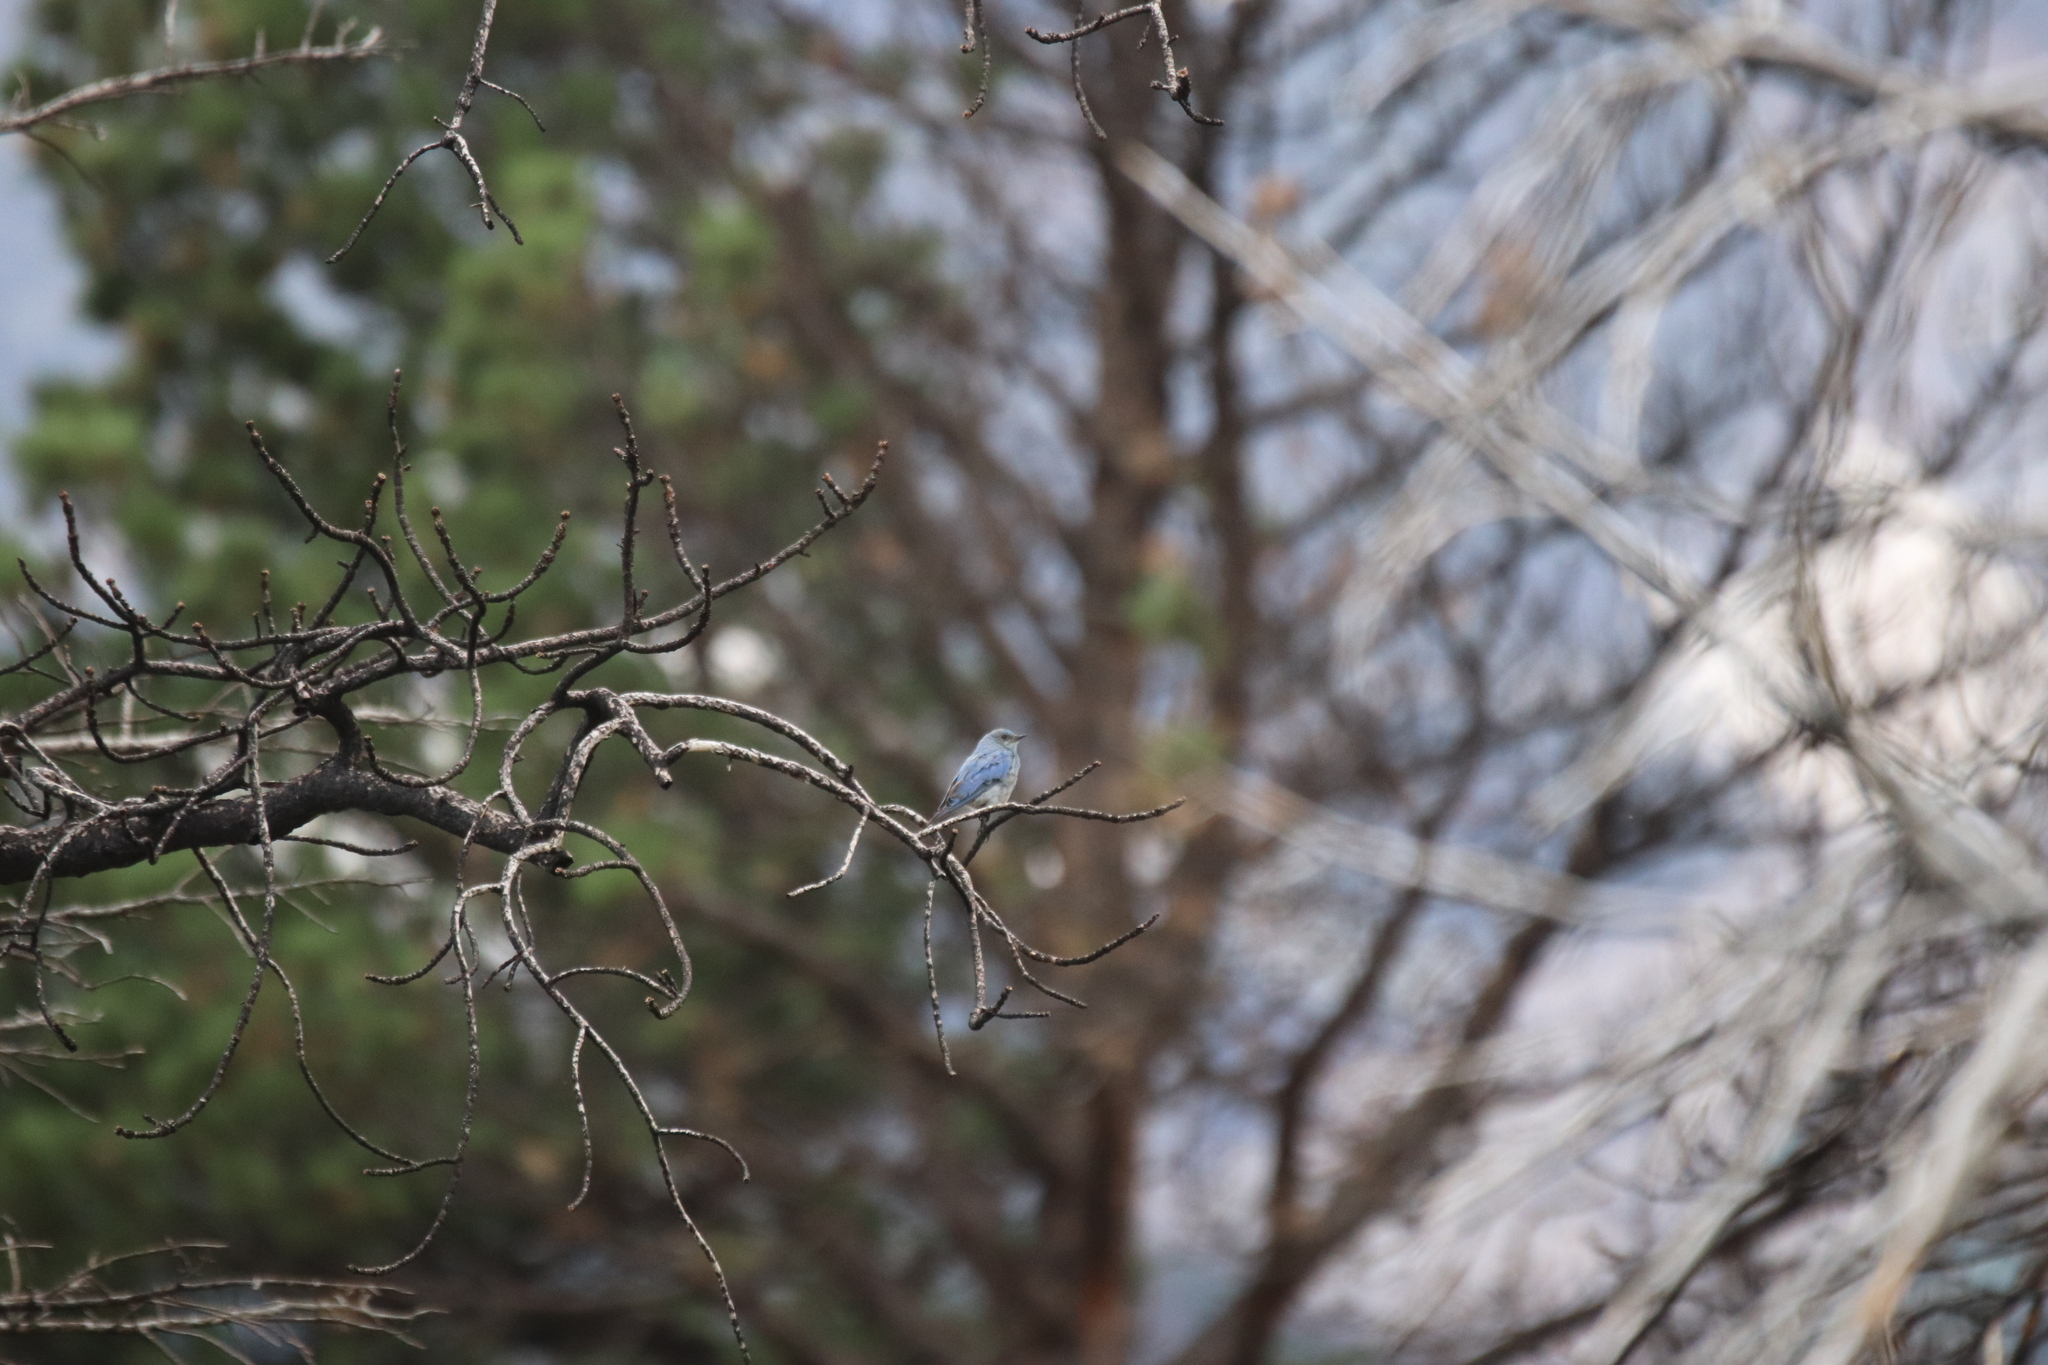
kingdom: Animalia
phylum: Chordata
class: Aves
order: Passeriformes
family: Turdidae
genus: Sialia
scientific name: Sialia currucoides
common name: Mountain bluebird
